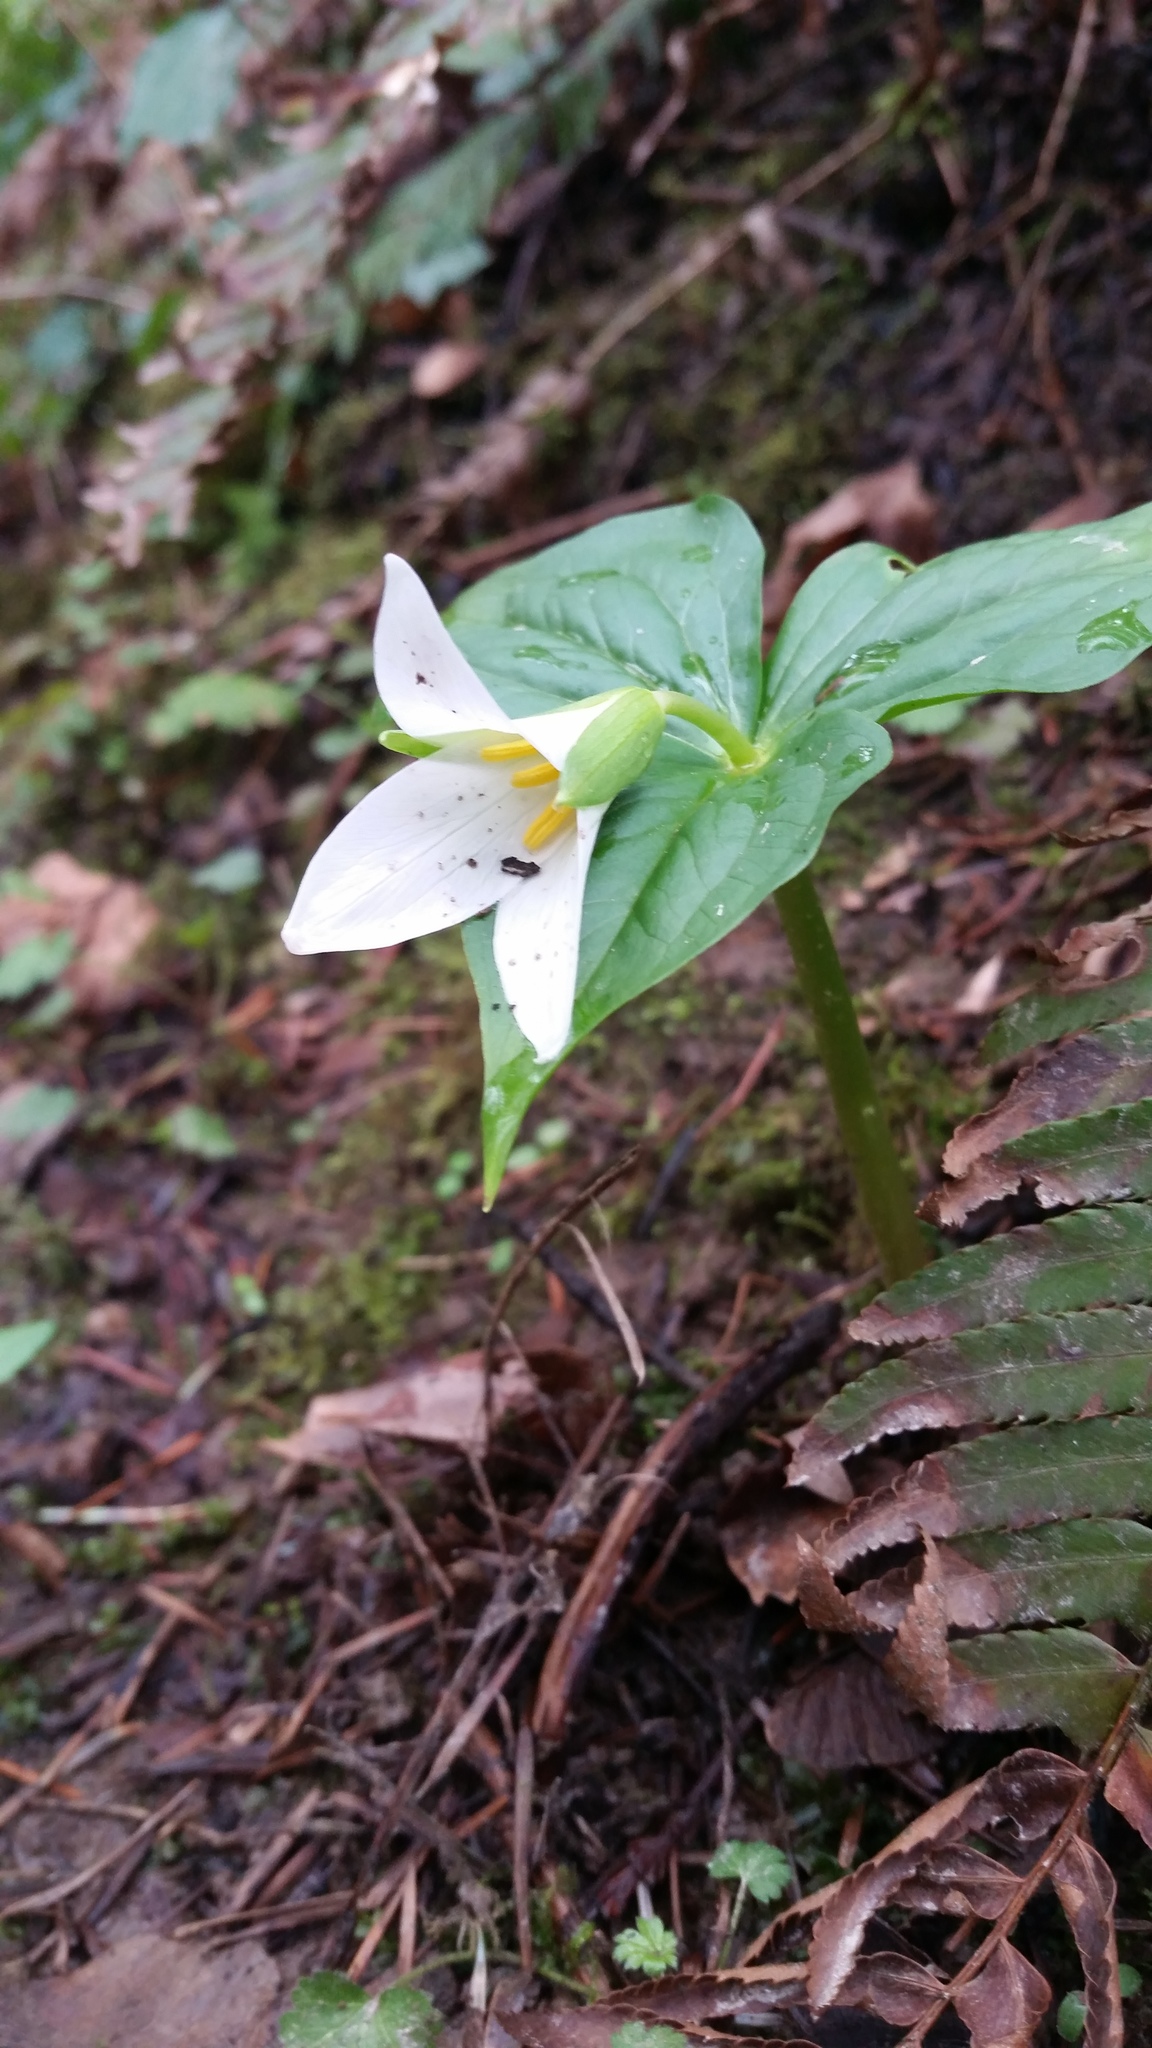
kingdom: Plantae
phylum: Tracheophyta
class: Liliopsida
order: Liliales
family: Melanthiaceae
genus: Trillium
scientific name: Trillium ovatum
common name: Pacific trillium
